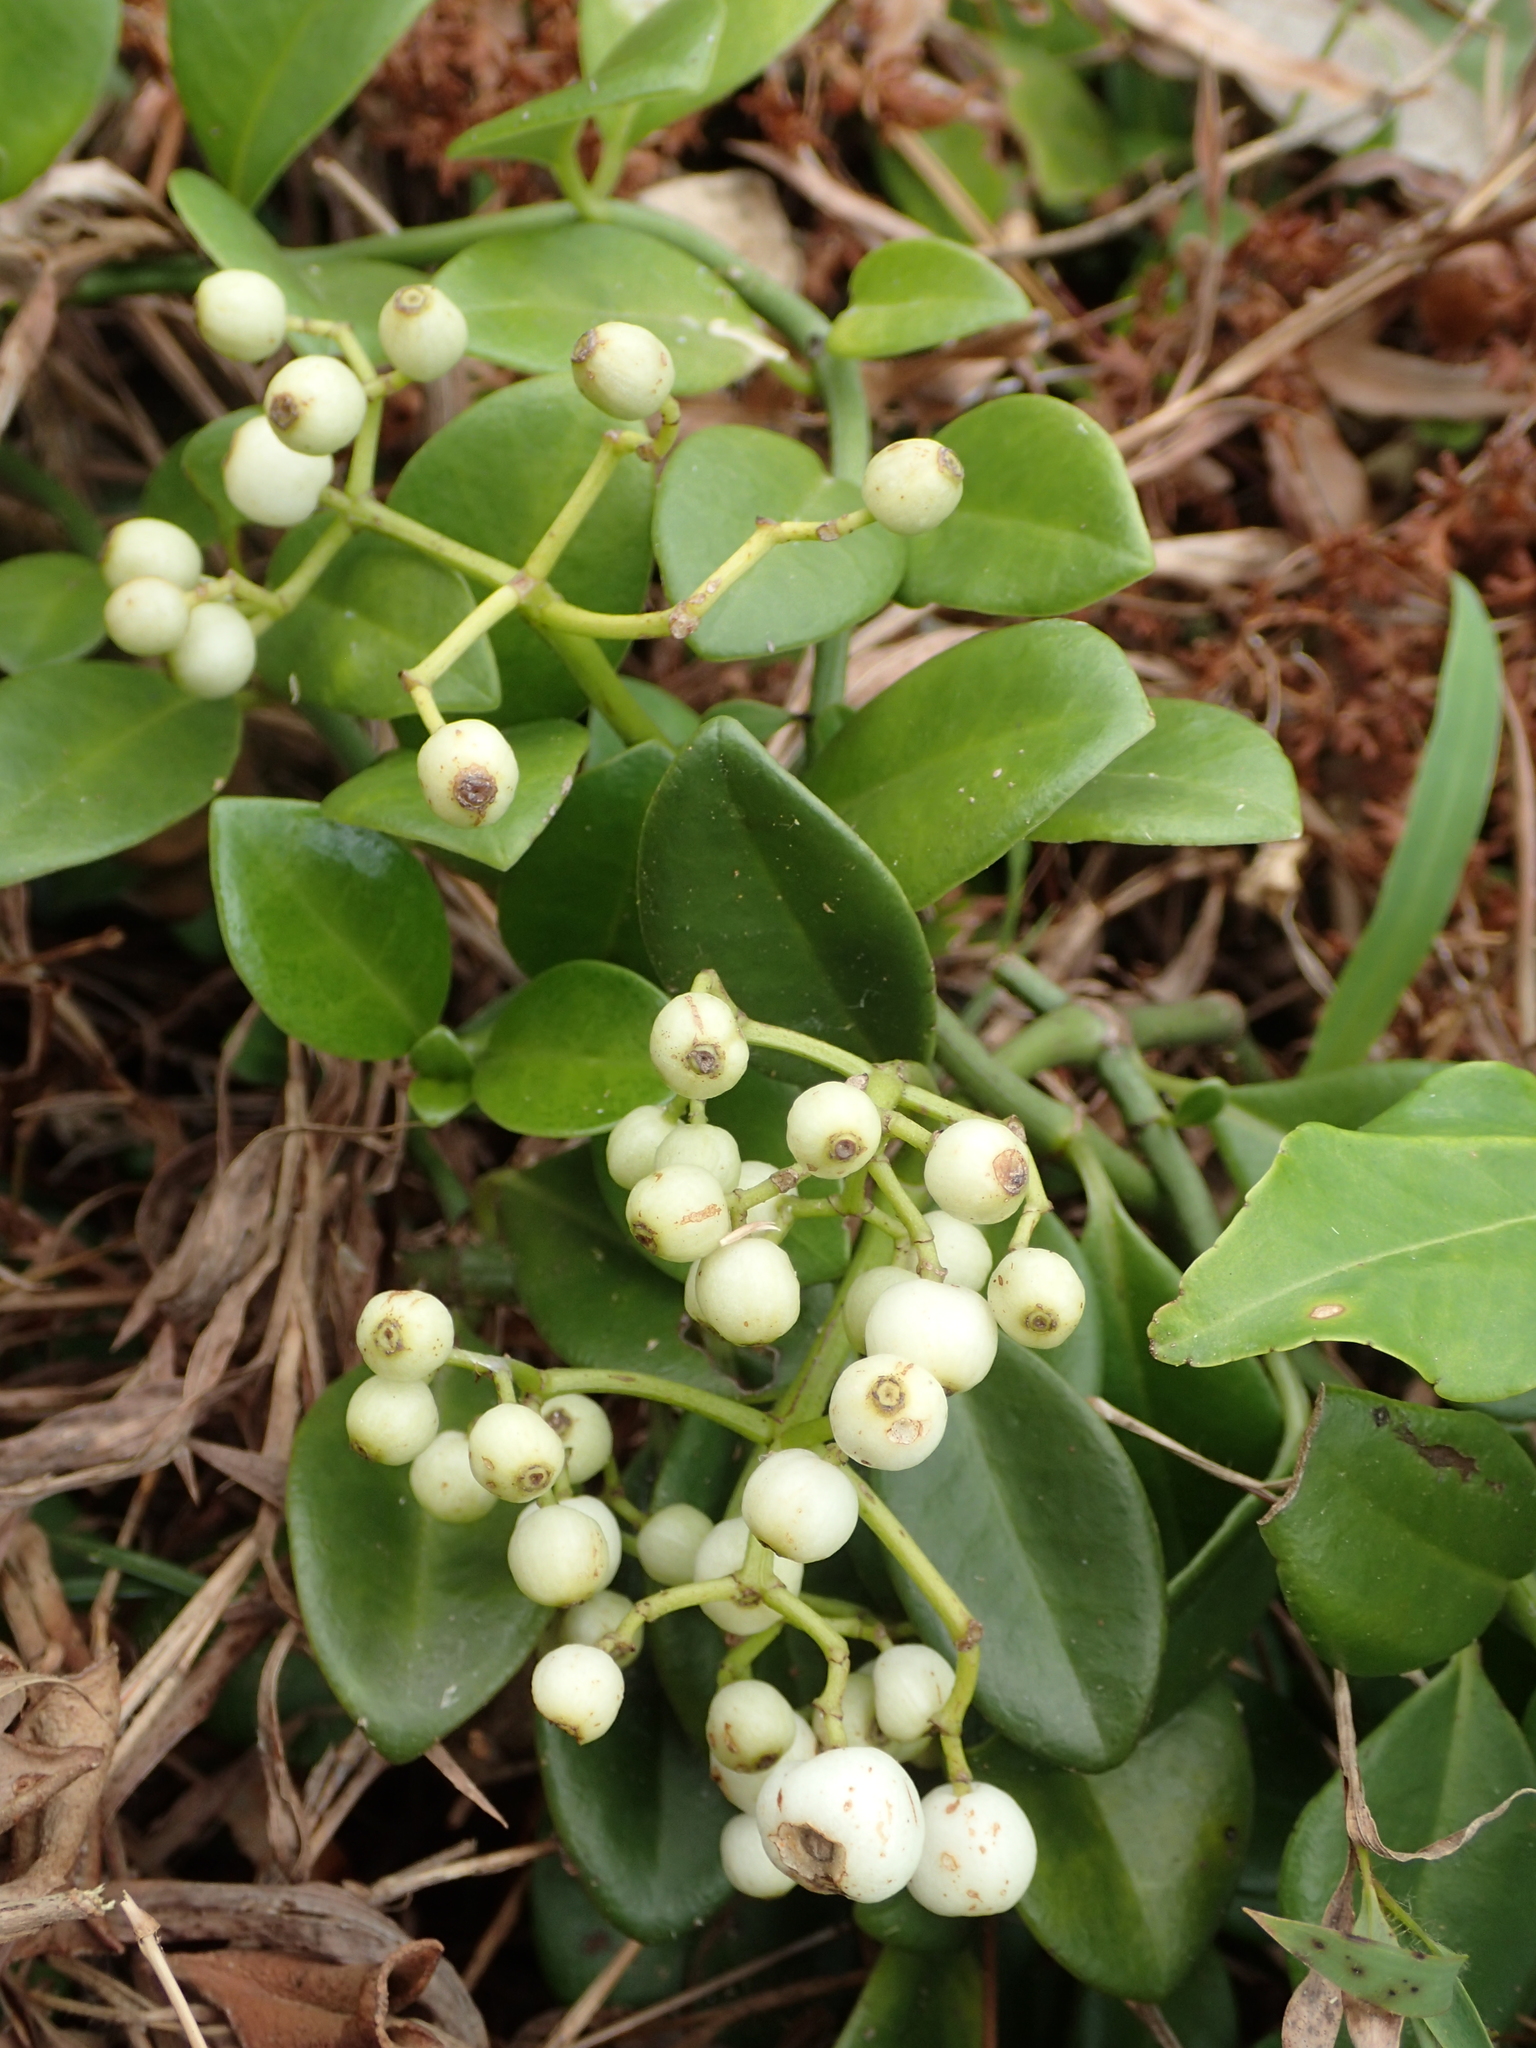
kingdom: Plantae
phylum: Tracheophyta
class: Magnoliopsida
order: Gentianales
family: Rubiaceae
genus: Psychotria
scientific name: Psychotria serpens
